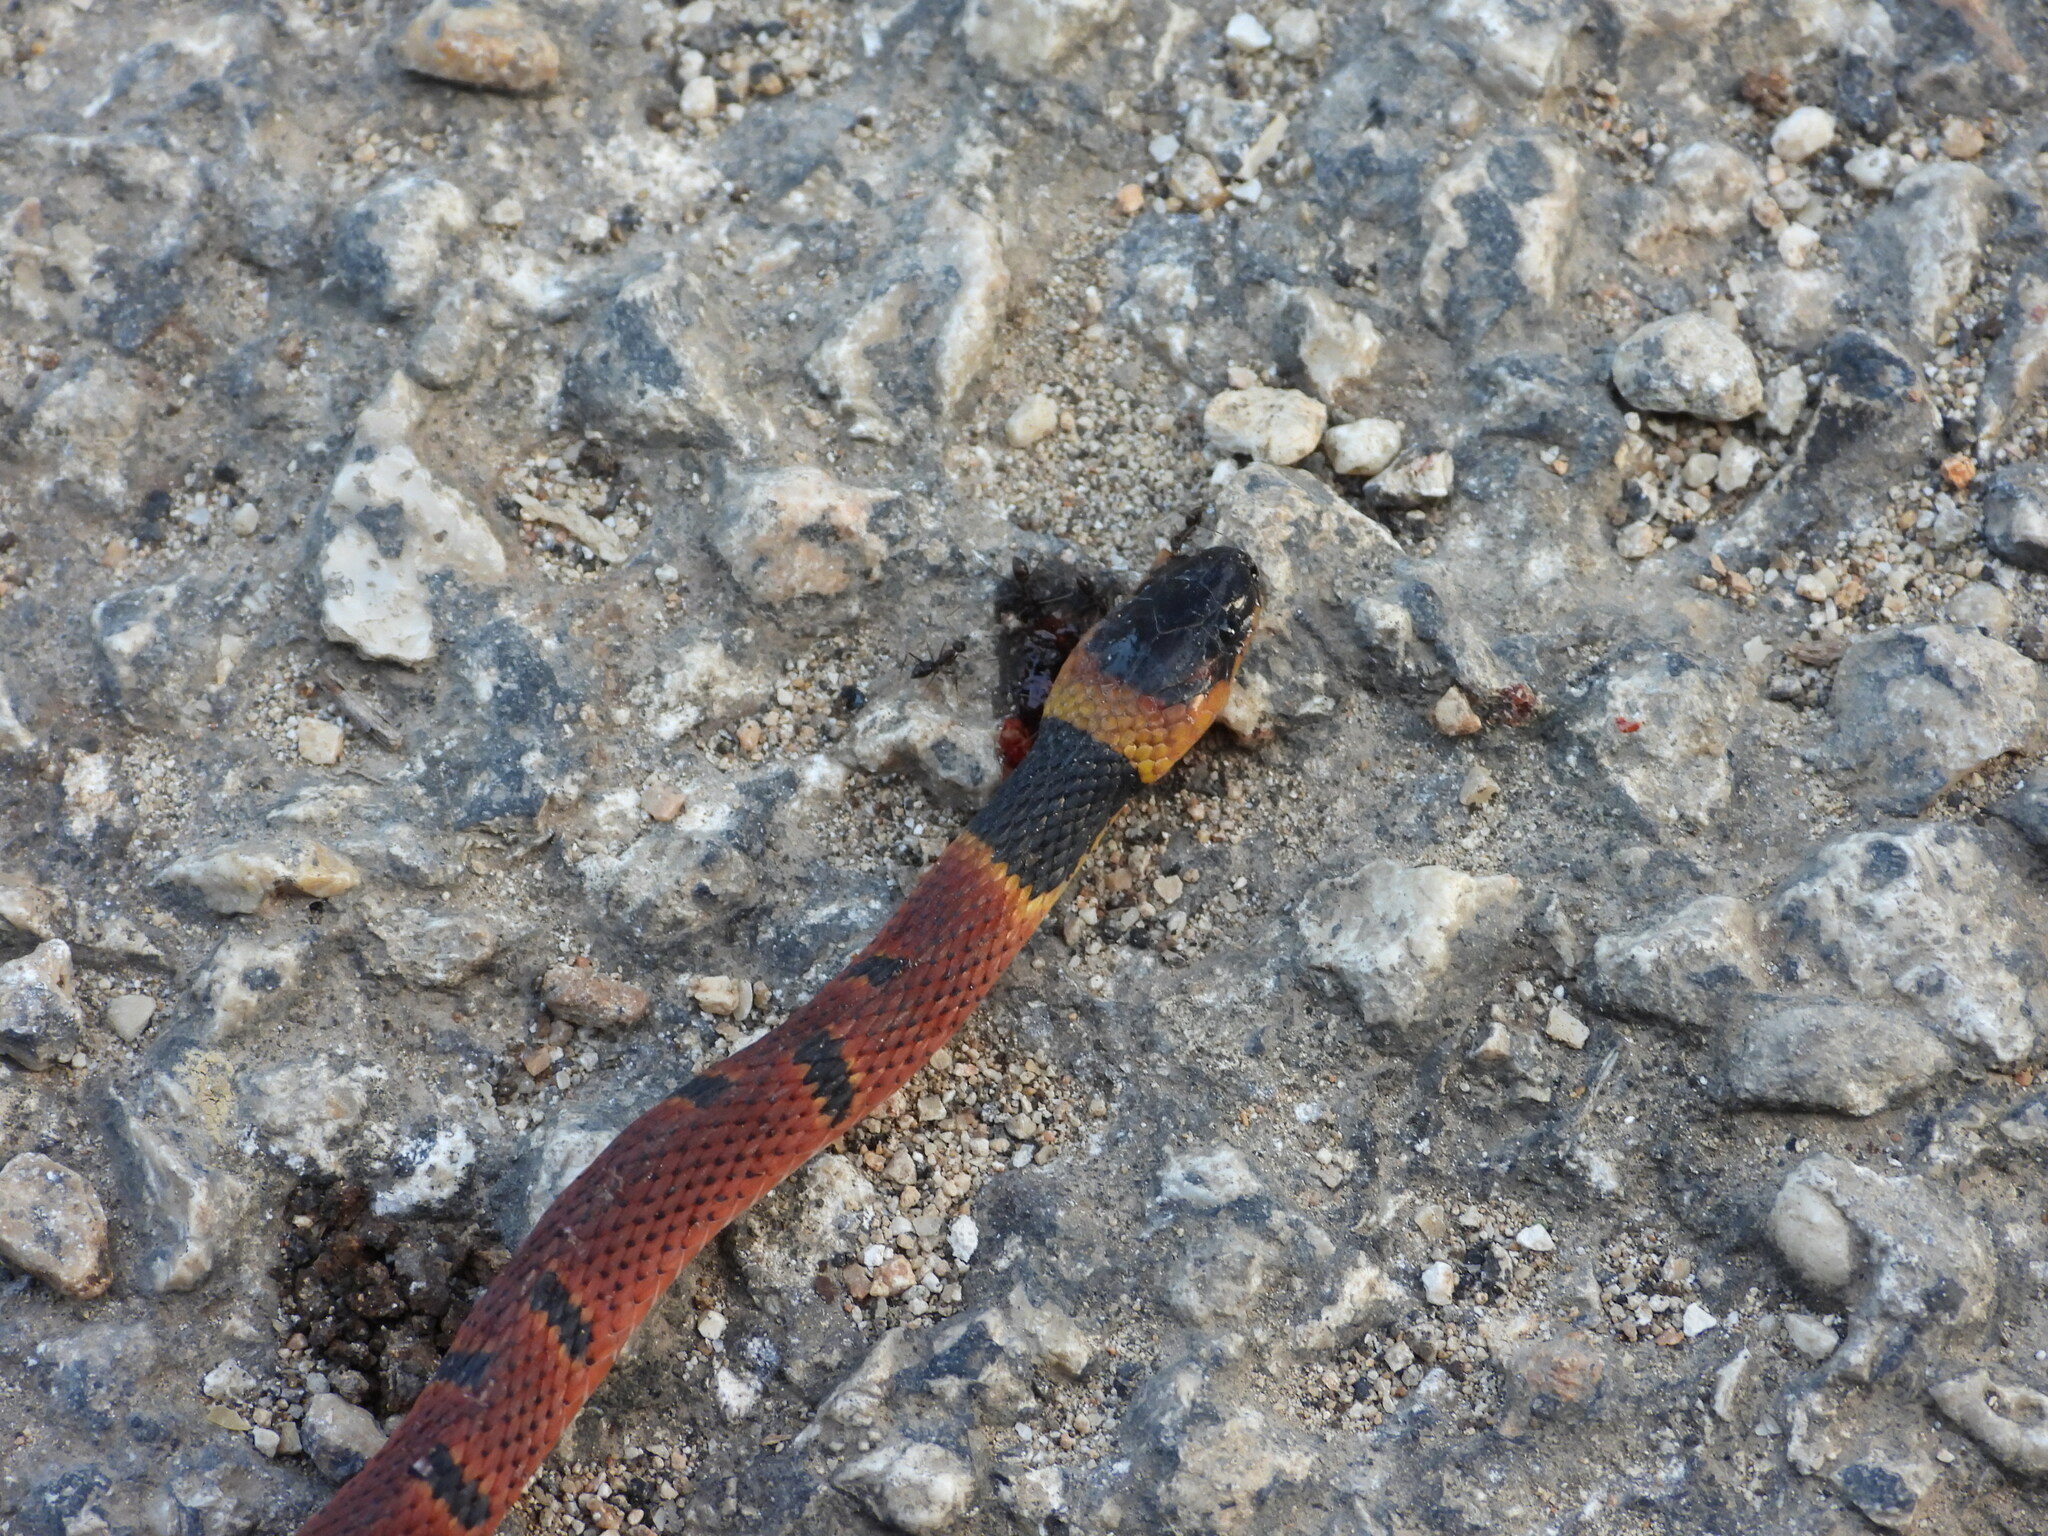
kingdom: Animalia
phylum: Chordata
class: Squamata
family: Colubridae
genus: Ninia
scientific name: Ninia sebae
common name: Redback coffee snake
